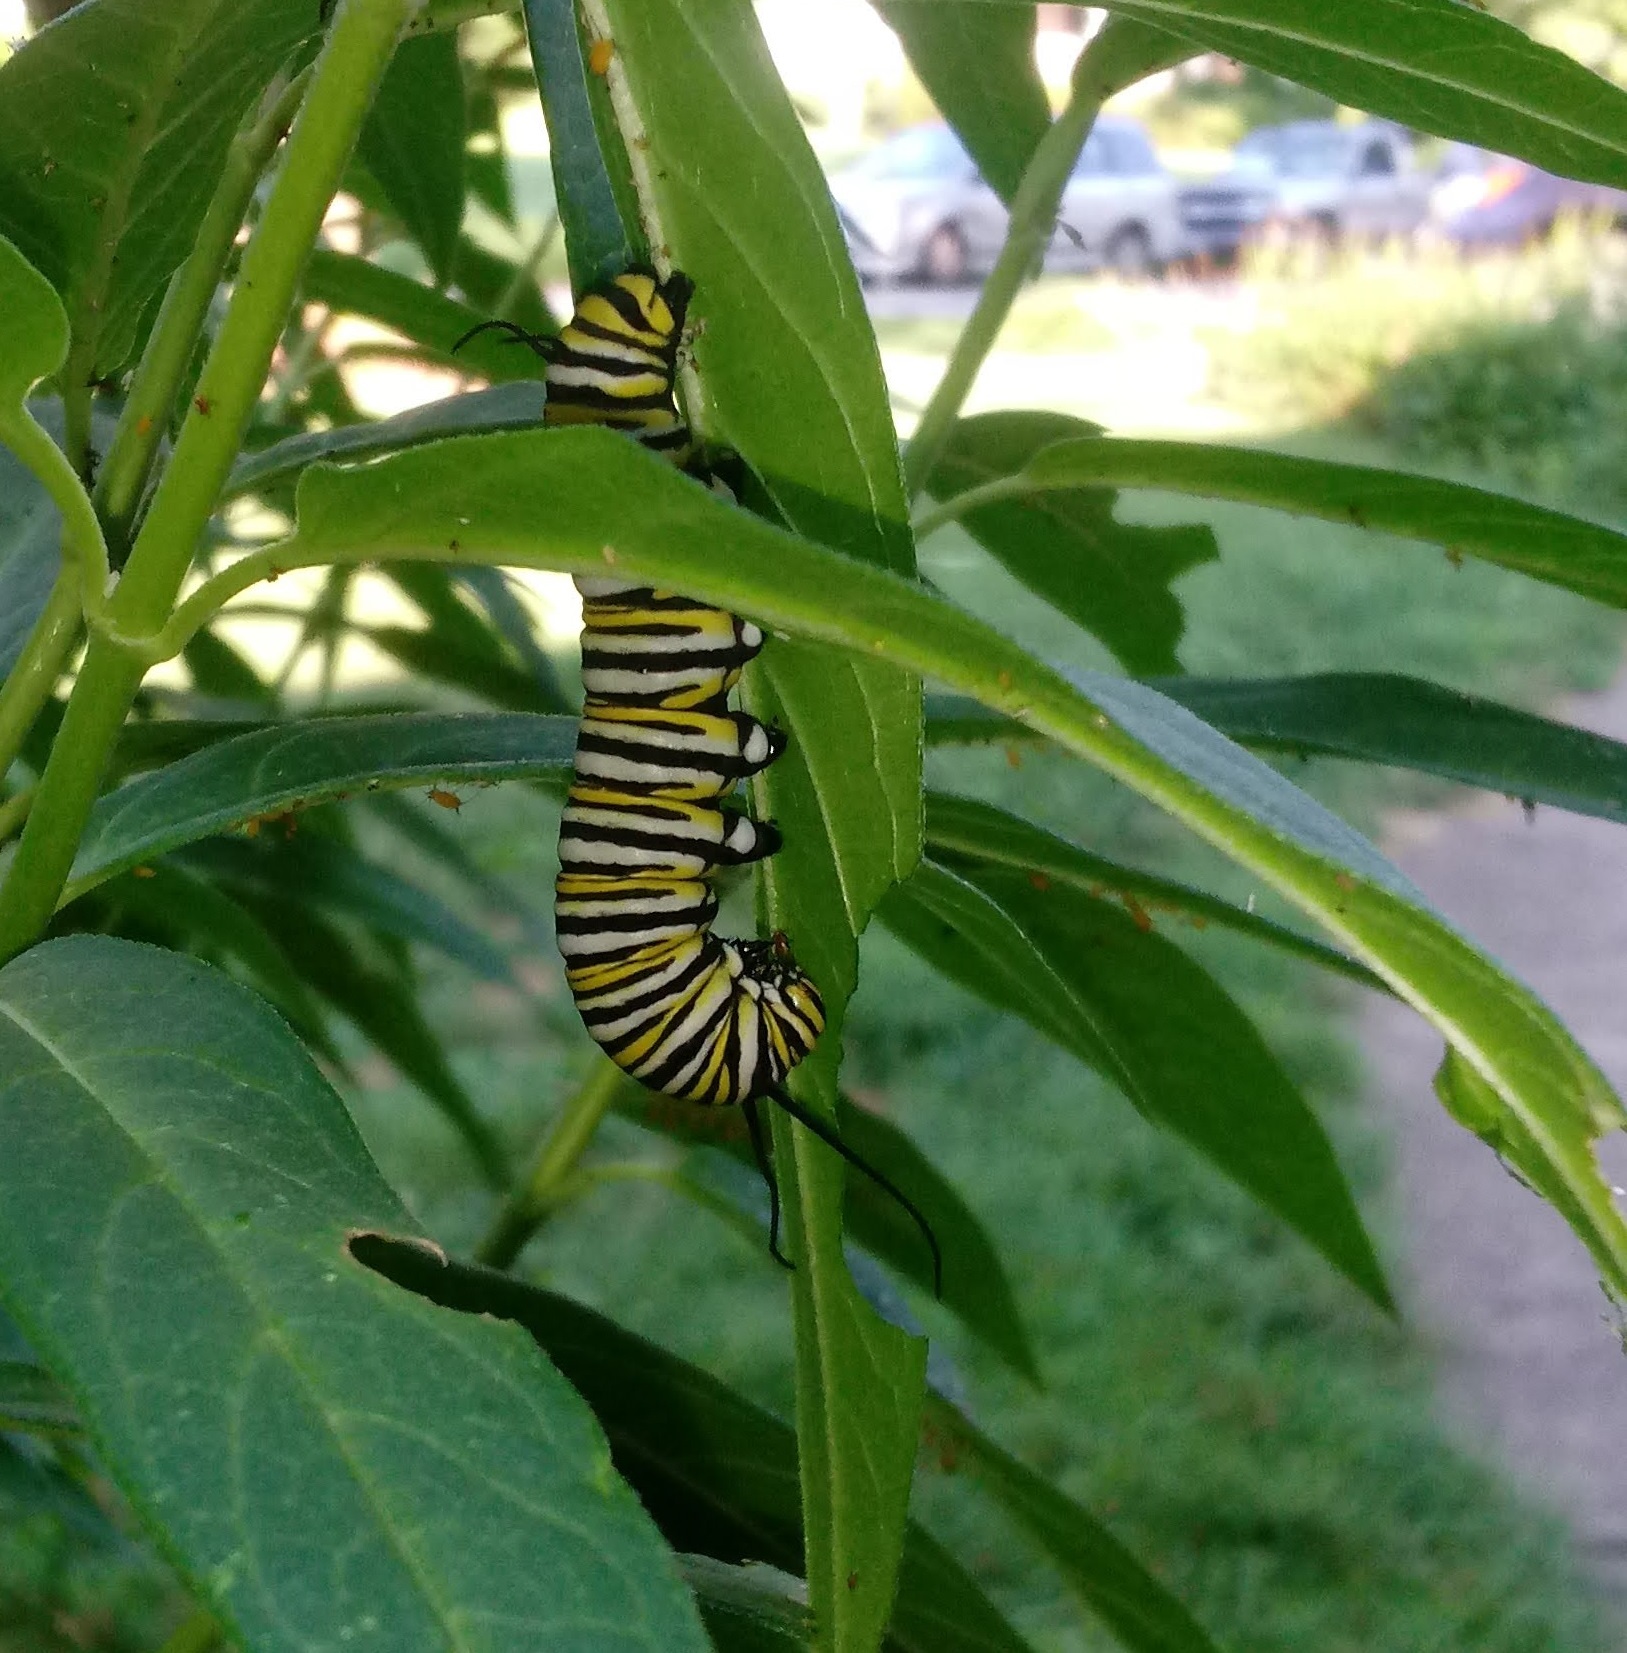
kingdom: Animalia
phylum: Arthropoda
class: Insecta
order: Lepidoptera
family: Nymphalidae
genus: Danaus
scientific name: Danaus plexippus
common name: Monarch
